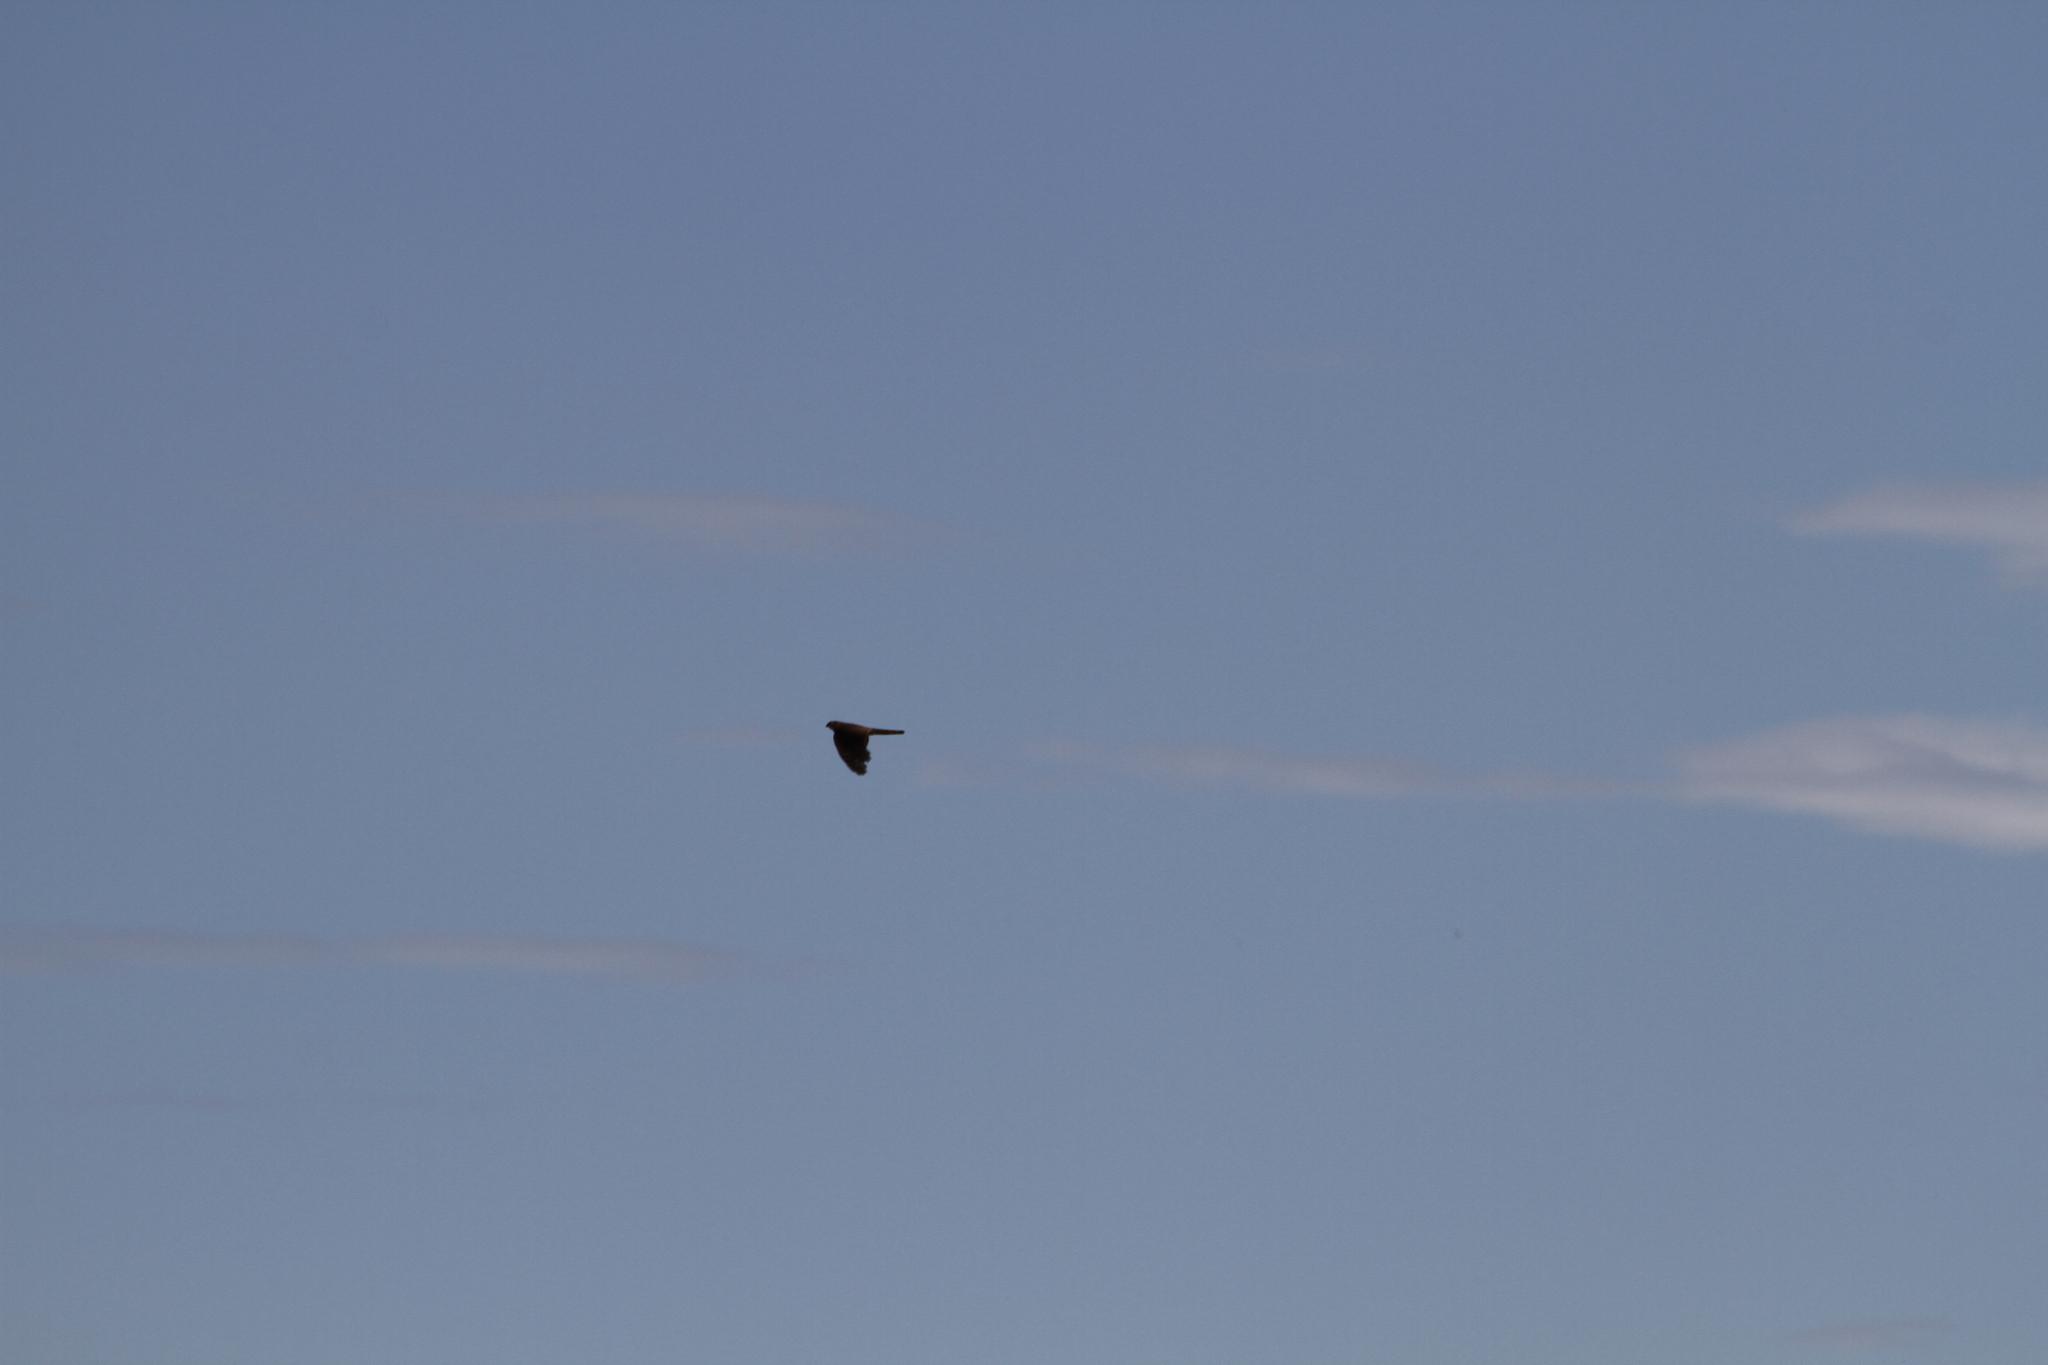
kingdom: Animalia
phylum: Chordata
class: Aves
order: Accipitriformes
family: Accipitridae
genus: Accipiter
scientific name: Accipiter nisus
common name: Eurasian sparrowhawk
